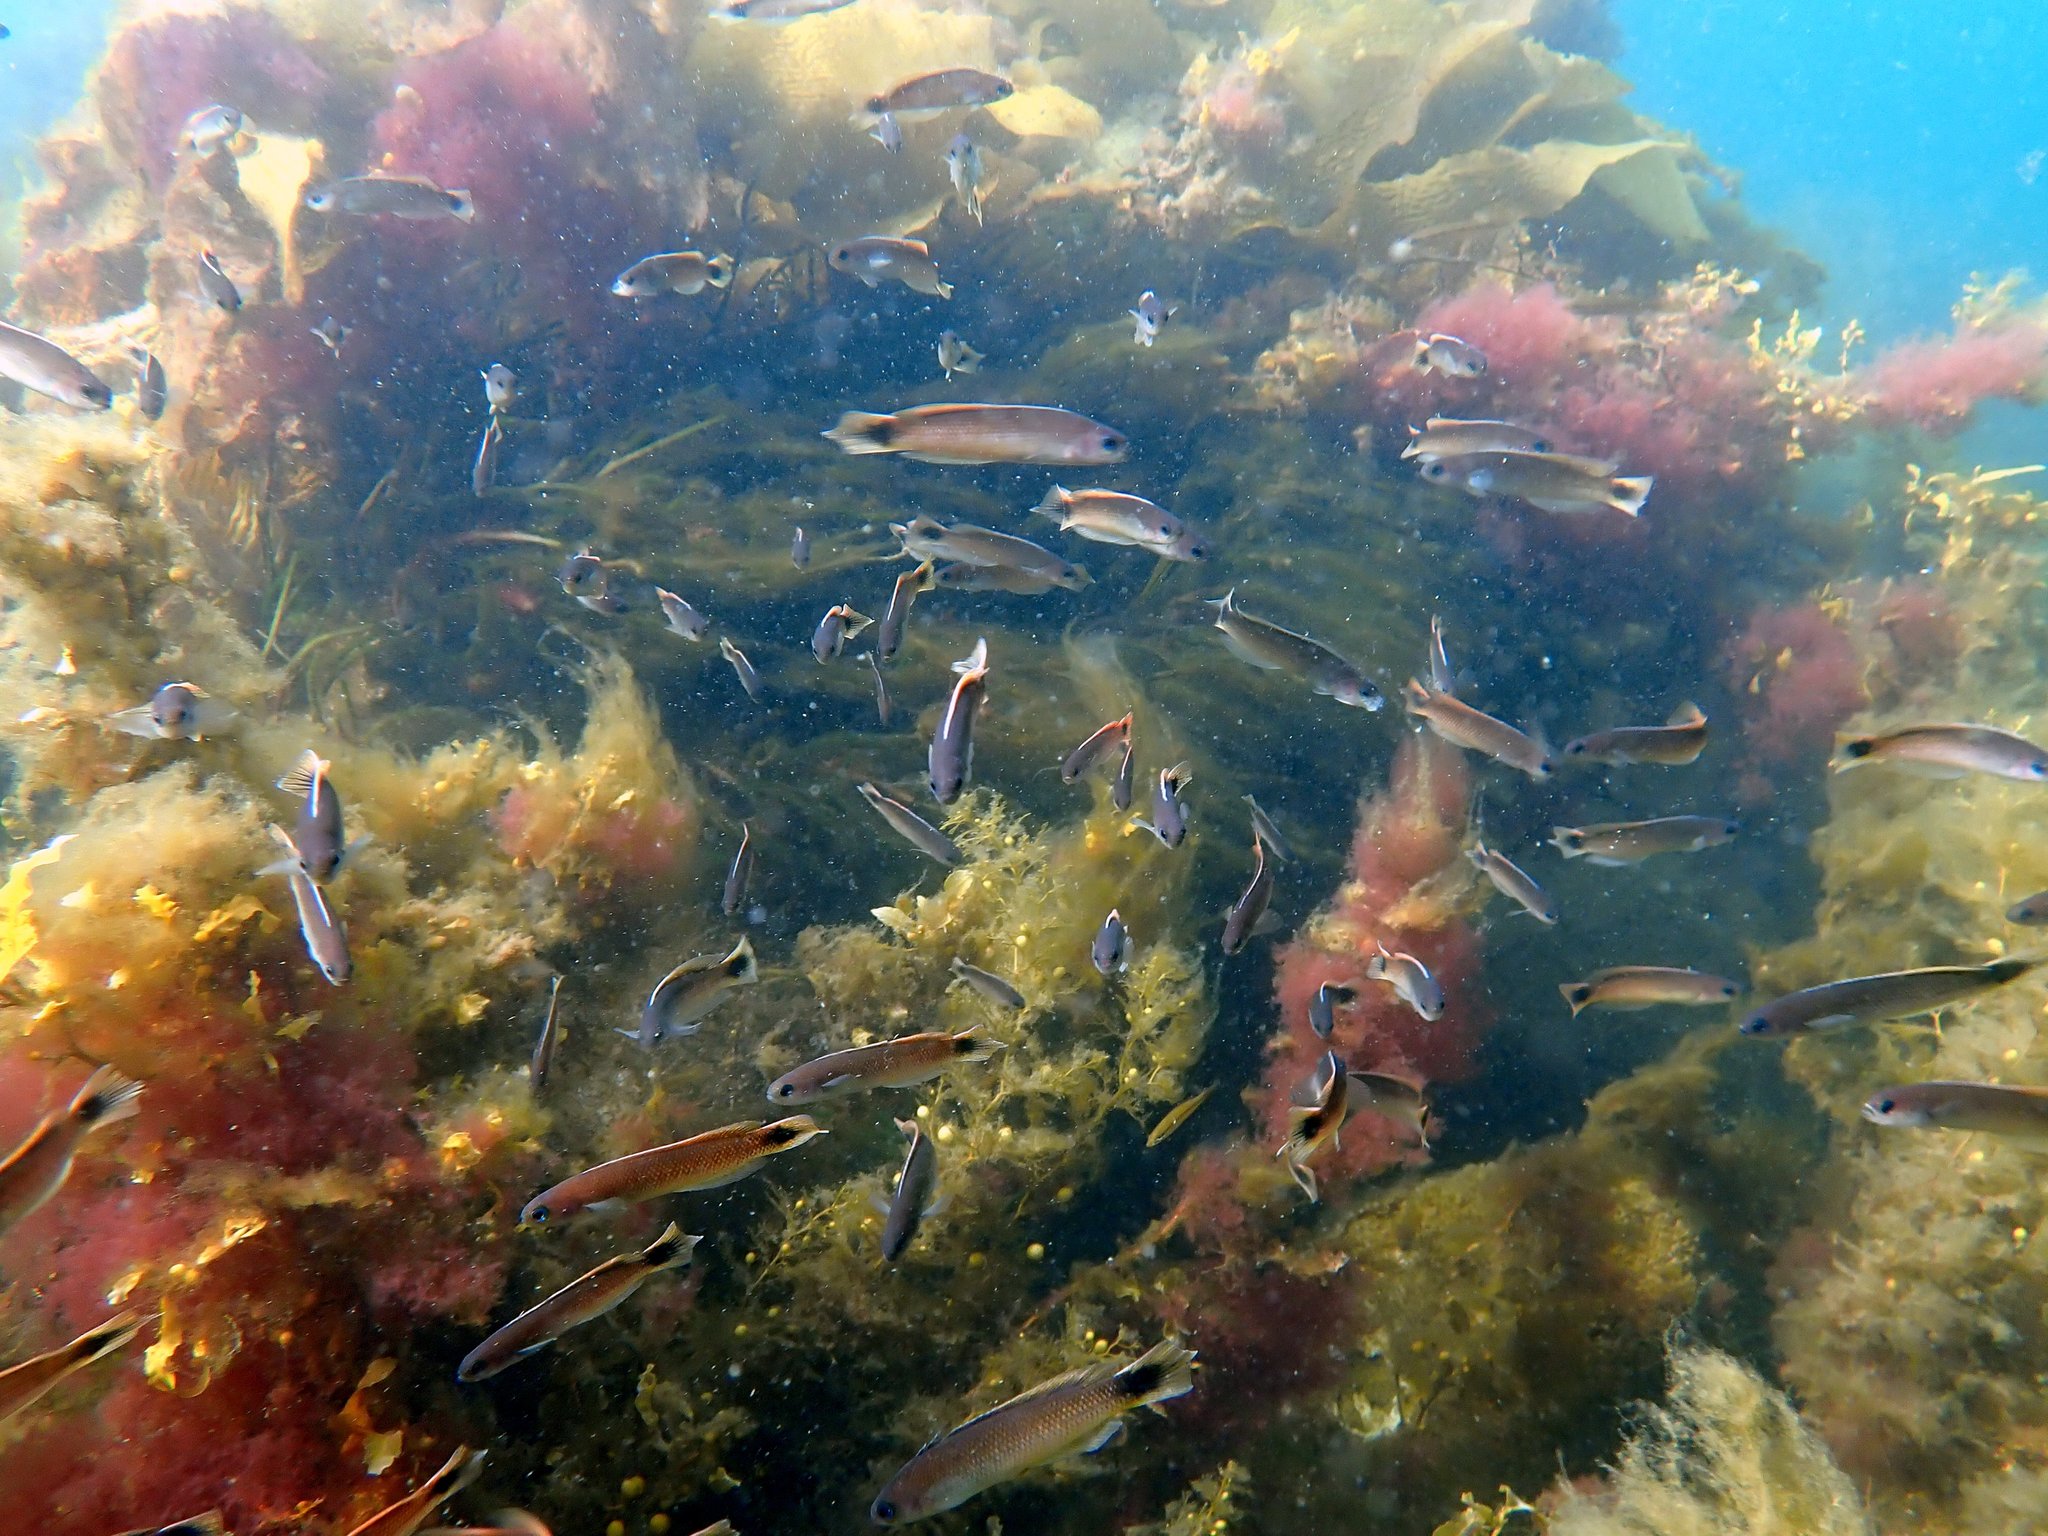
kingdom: Animalia
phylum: Chordata
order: Perciformes
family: Plesiopidae
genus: Trachinops
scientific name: Trachinops caudimaculatus
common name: Blotched-tailed trachinops
